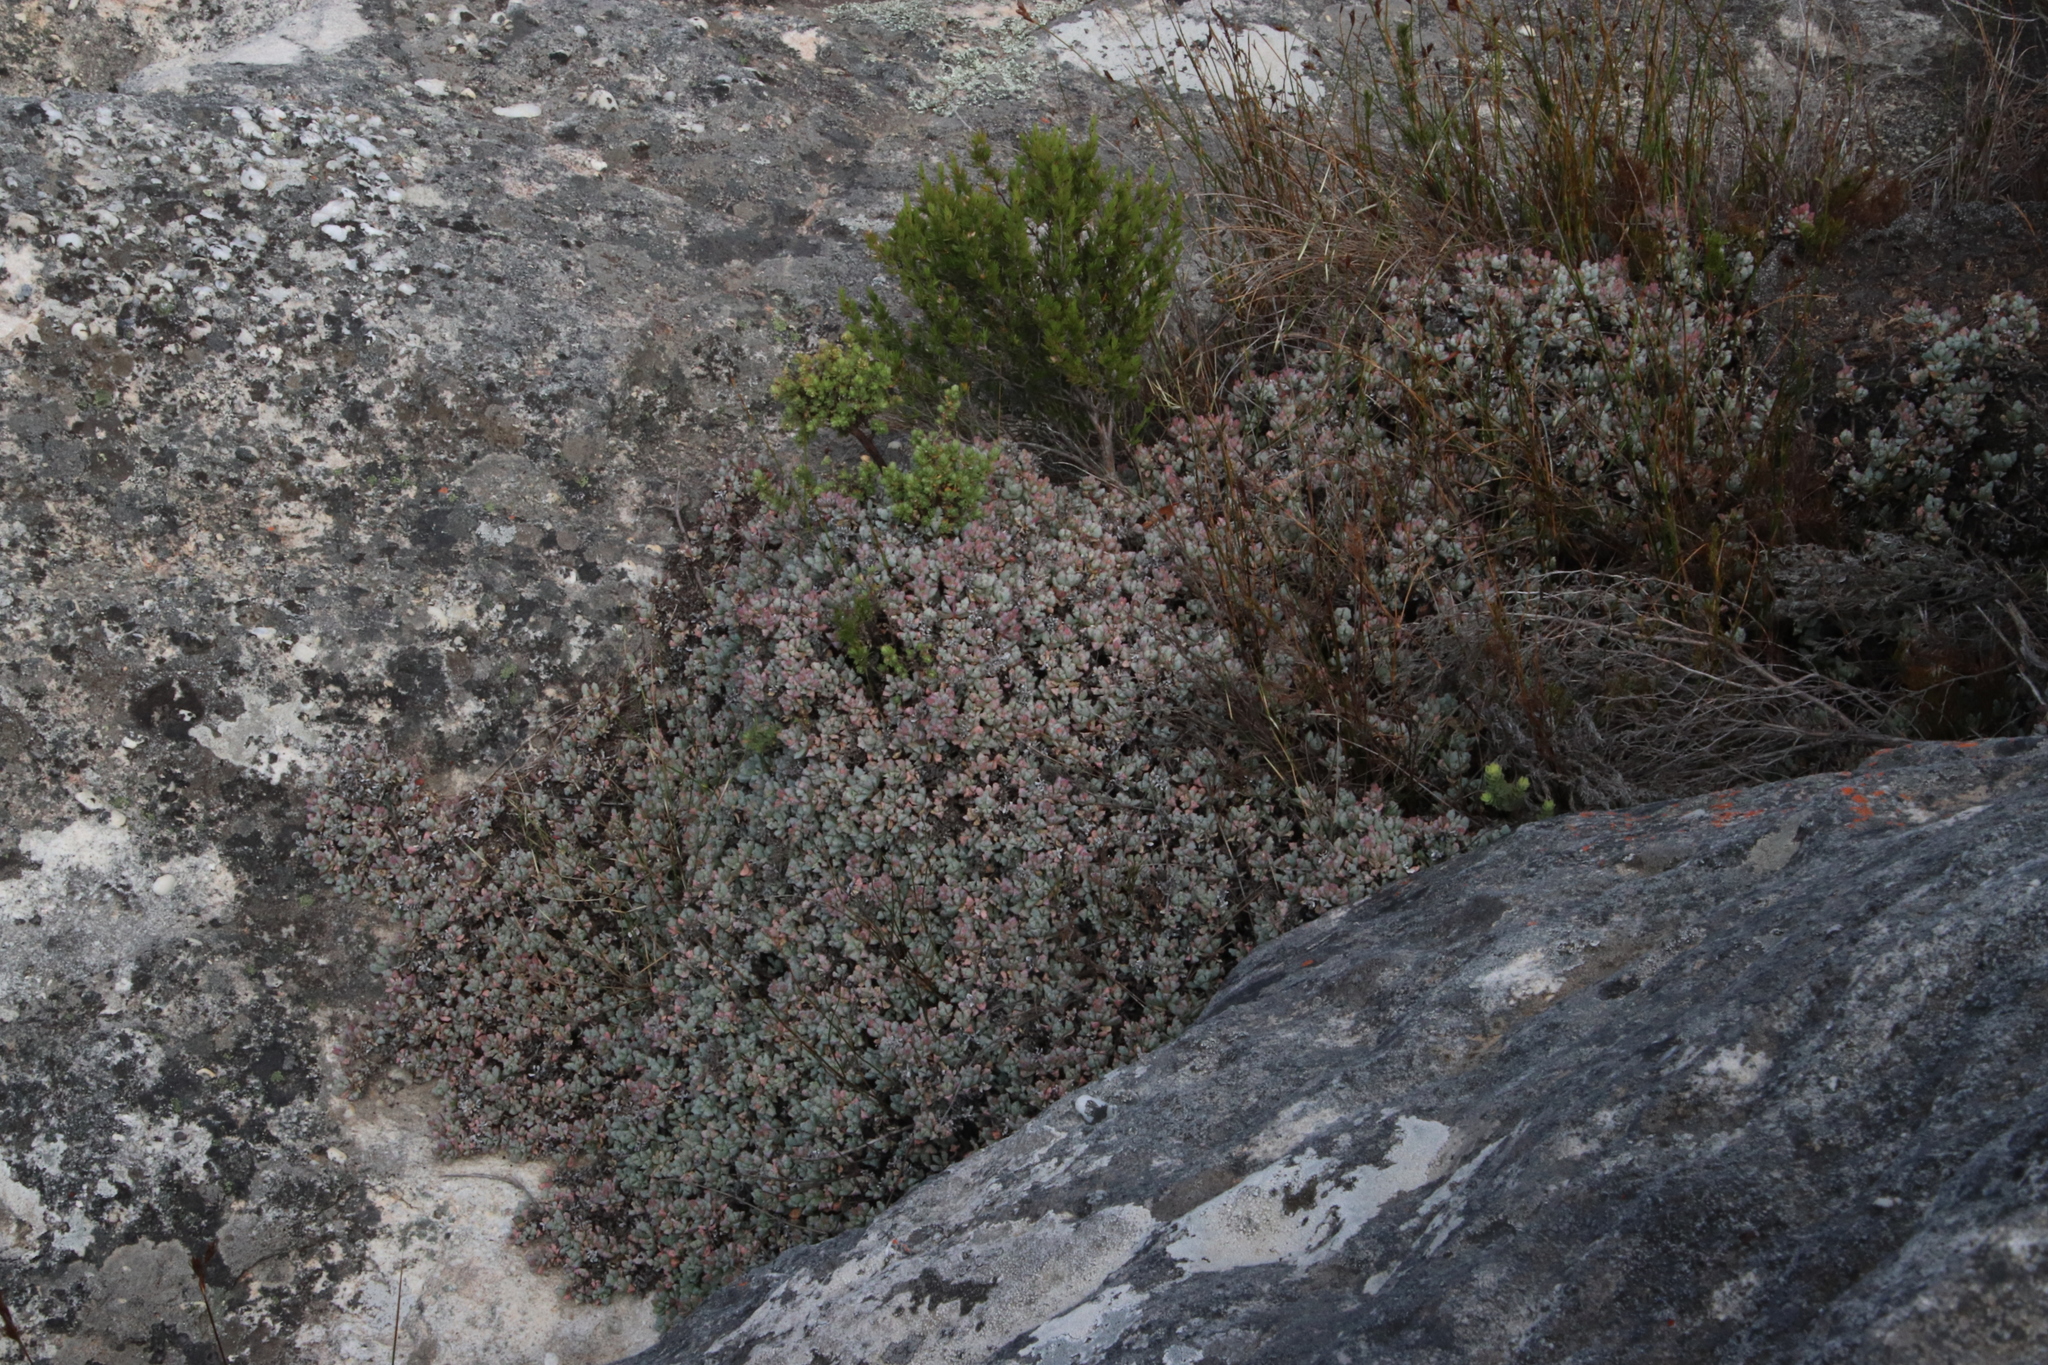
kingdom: Plantae
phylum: Tracheophyta
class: Magnoliopsida
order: Caryophyllales
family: Aizoaceae
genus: Oscularia
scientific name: Oscularia deltoides
